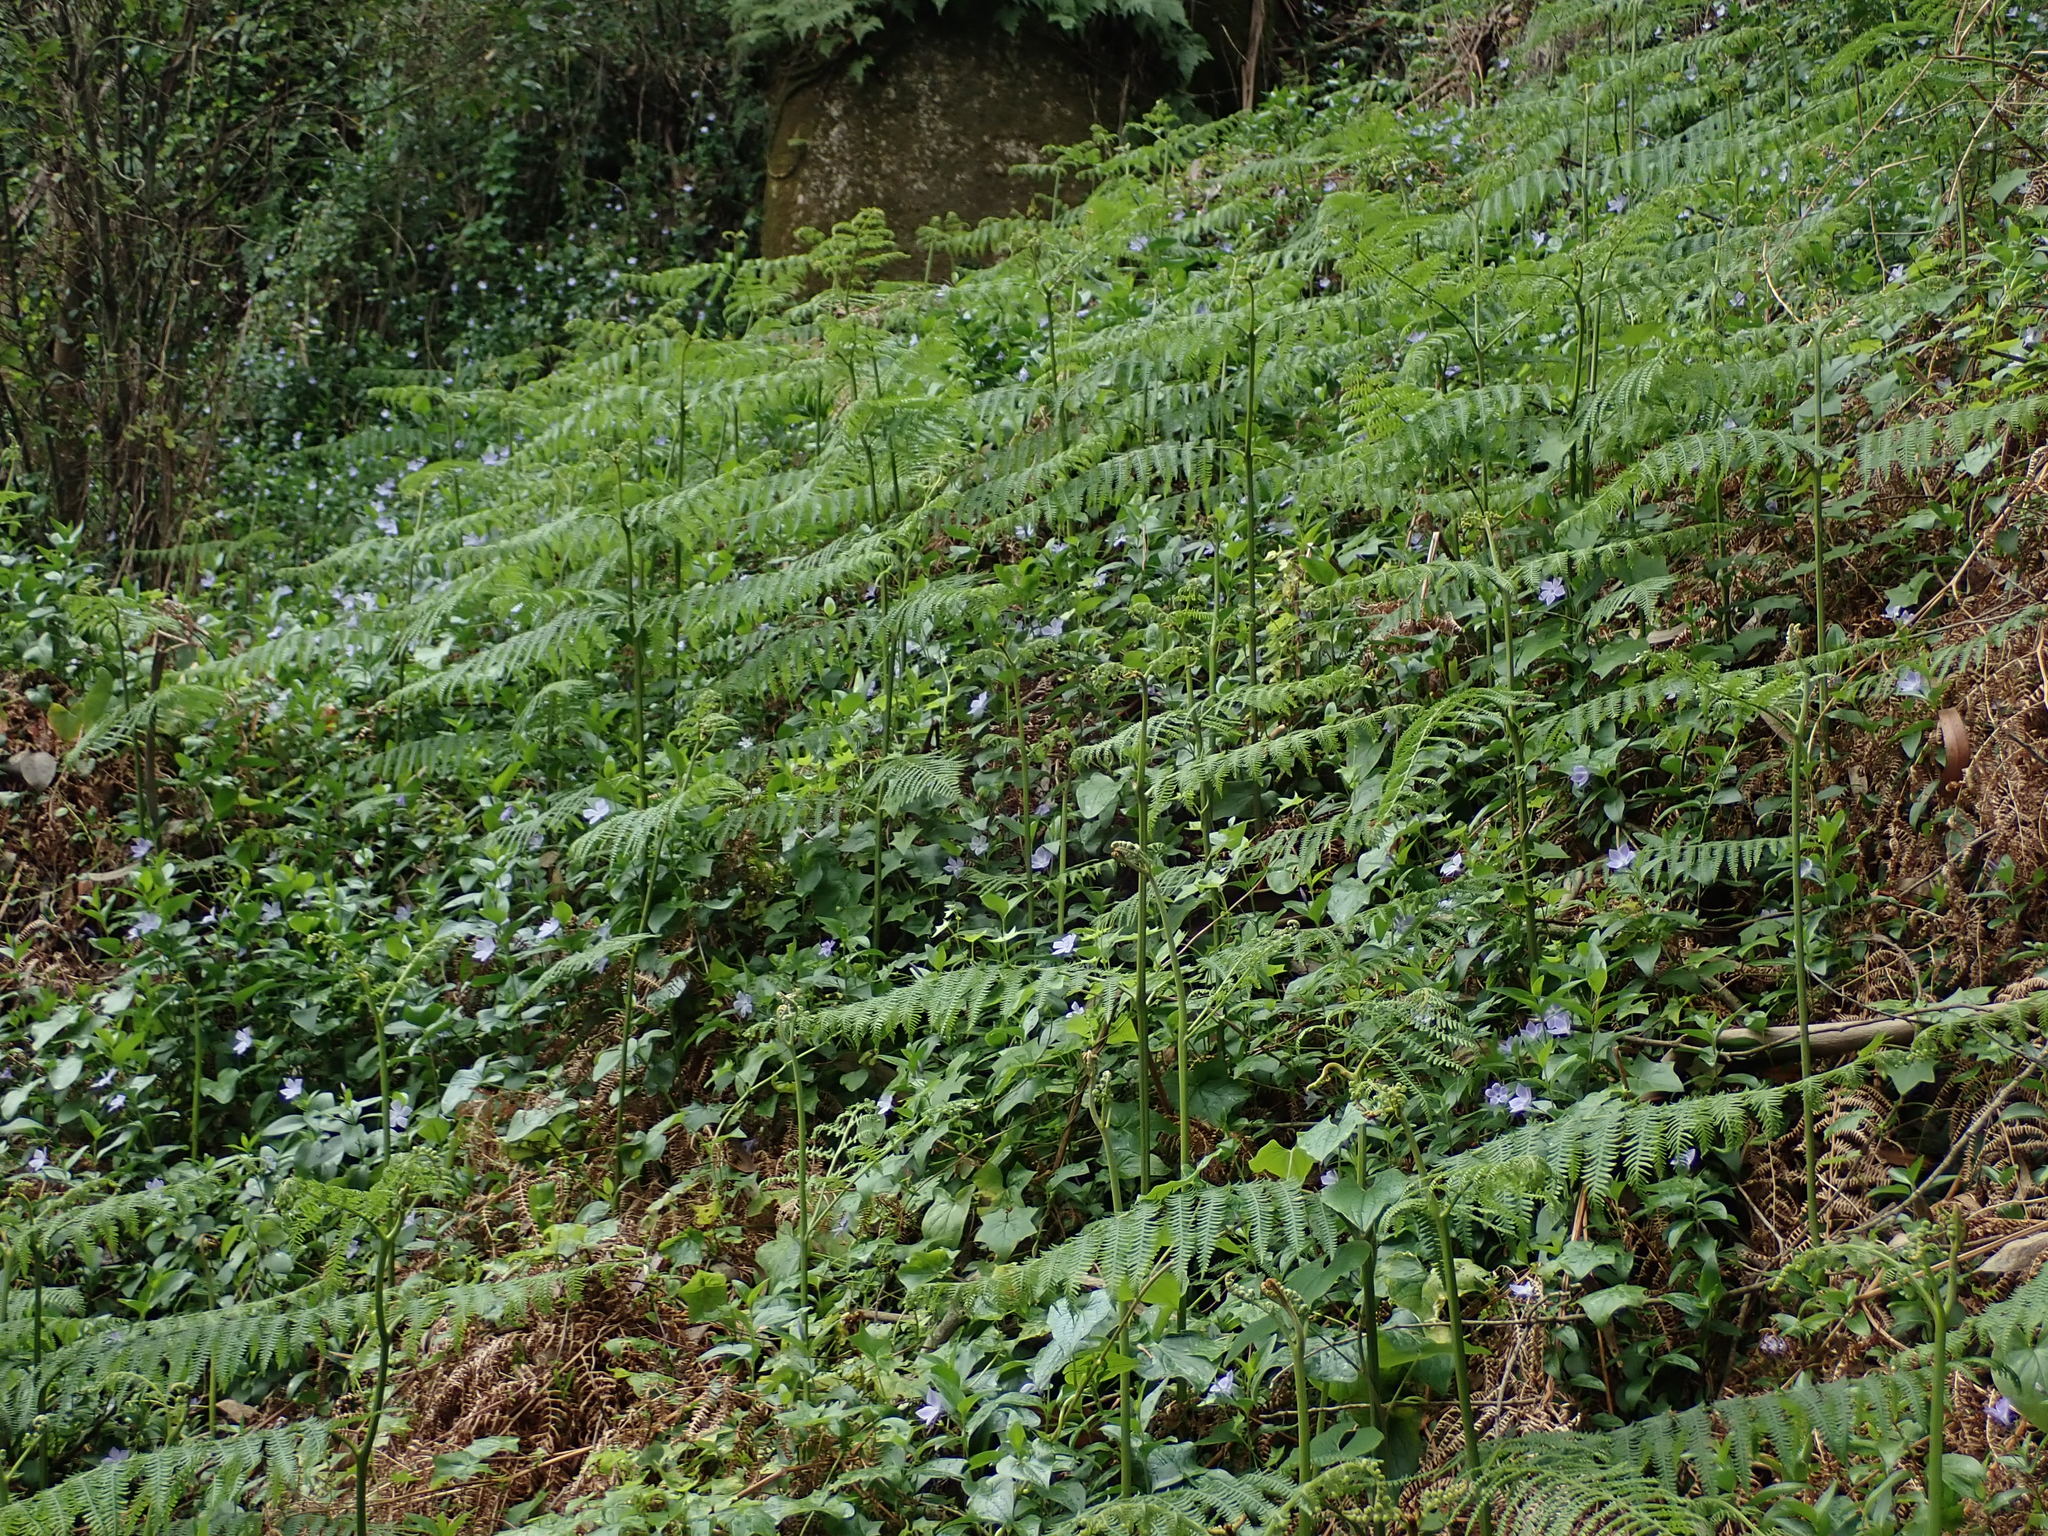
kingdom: Plantae
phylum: Tracheophyta
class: Polypodiopsida
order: Polypodiales
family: Dennstaedtiaceae
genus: Pteridium
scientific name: Pteridium aquilinum
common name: Bracken
